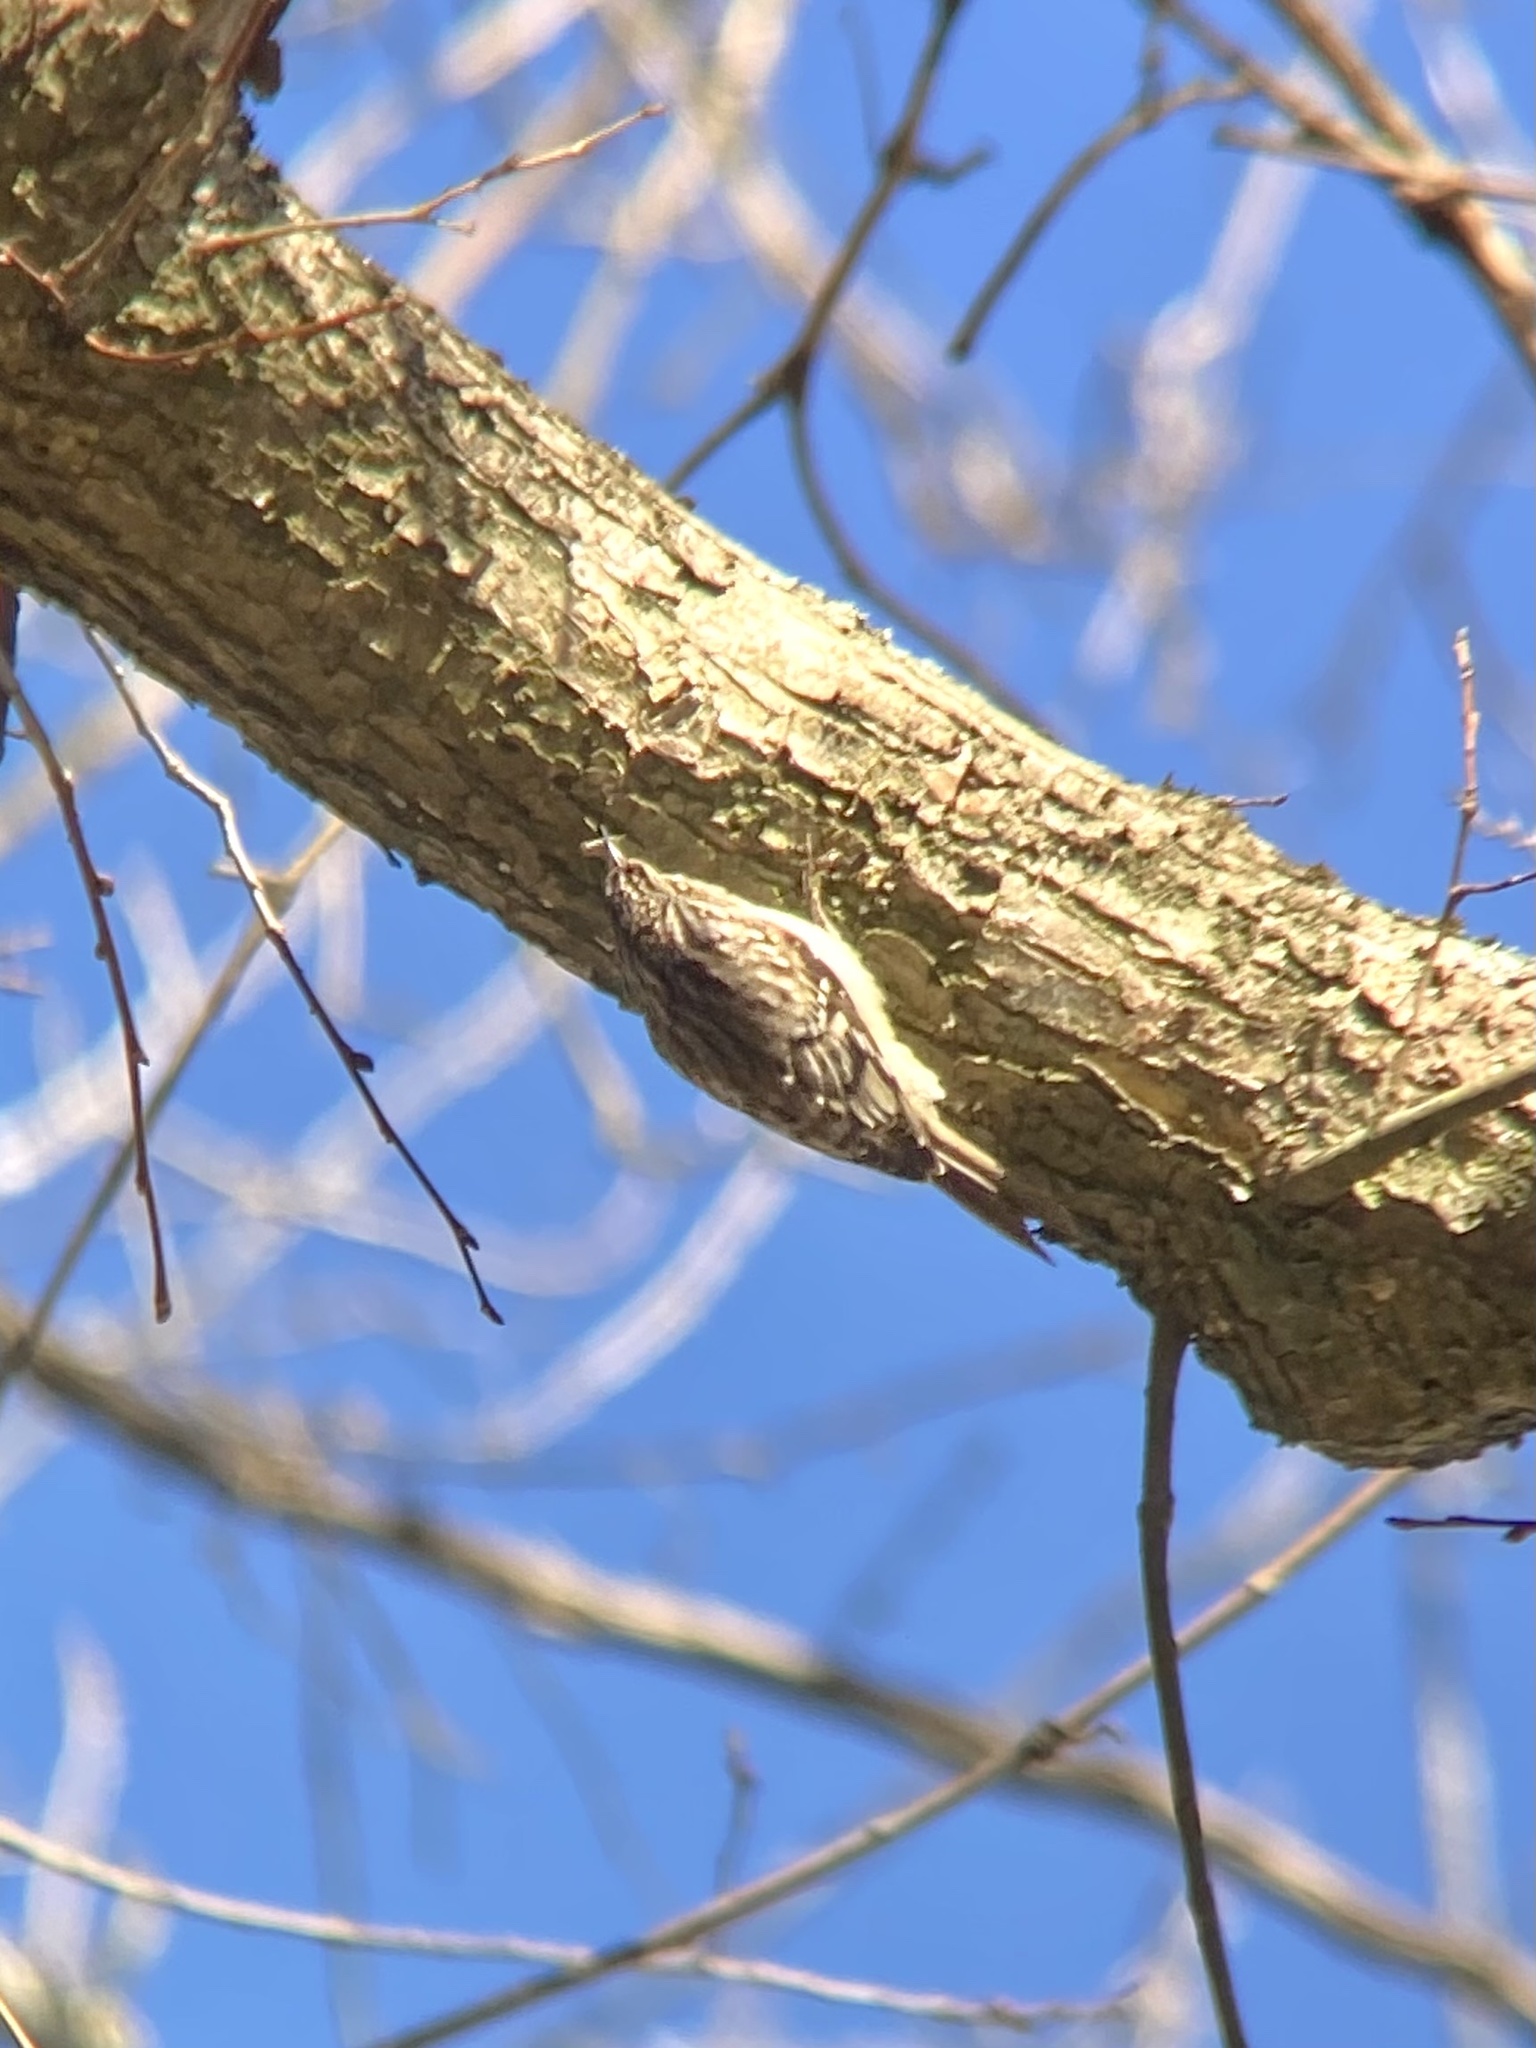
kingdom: Animalia
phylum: Chordata
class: Aves
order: Passeriformes
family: Certhiidae
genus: Certhia
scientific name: Certhia americana
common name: Brown creeper
